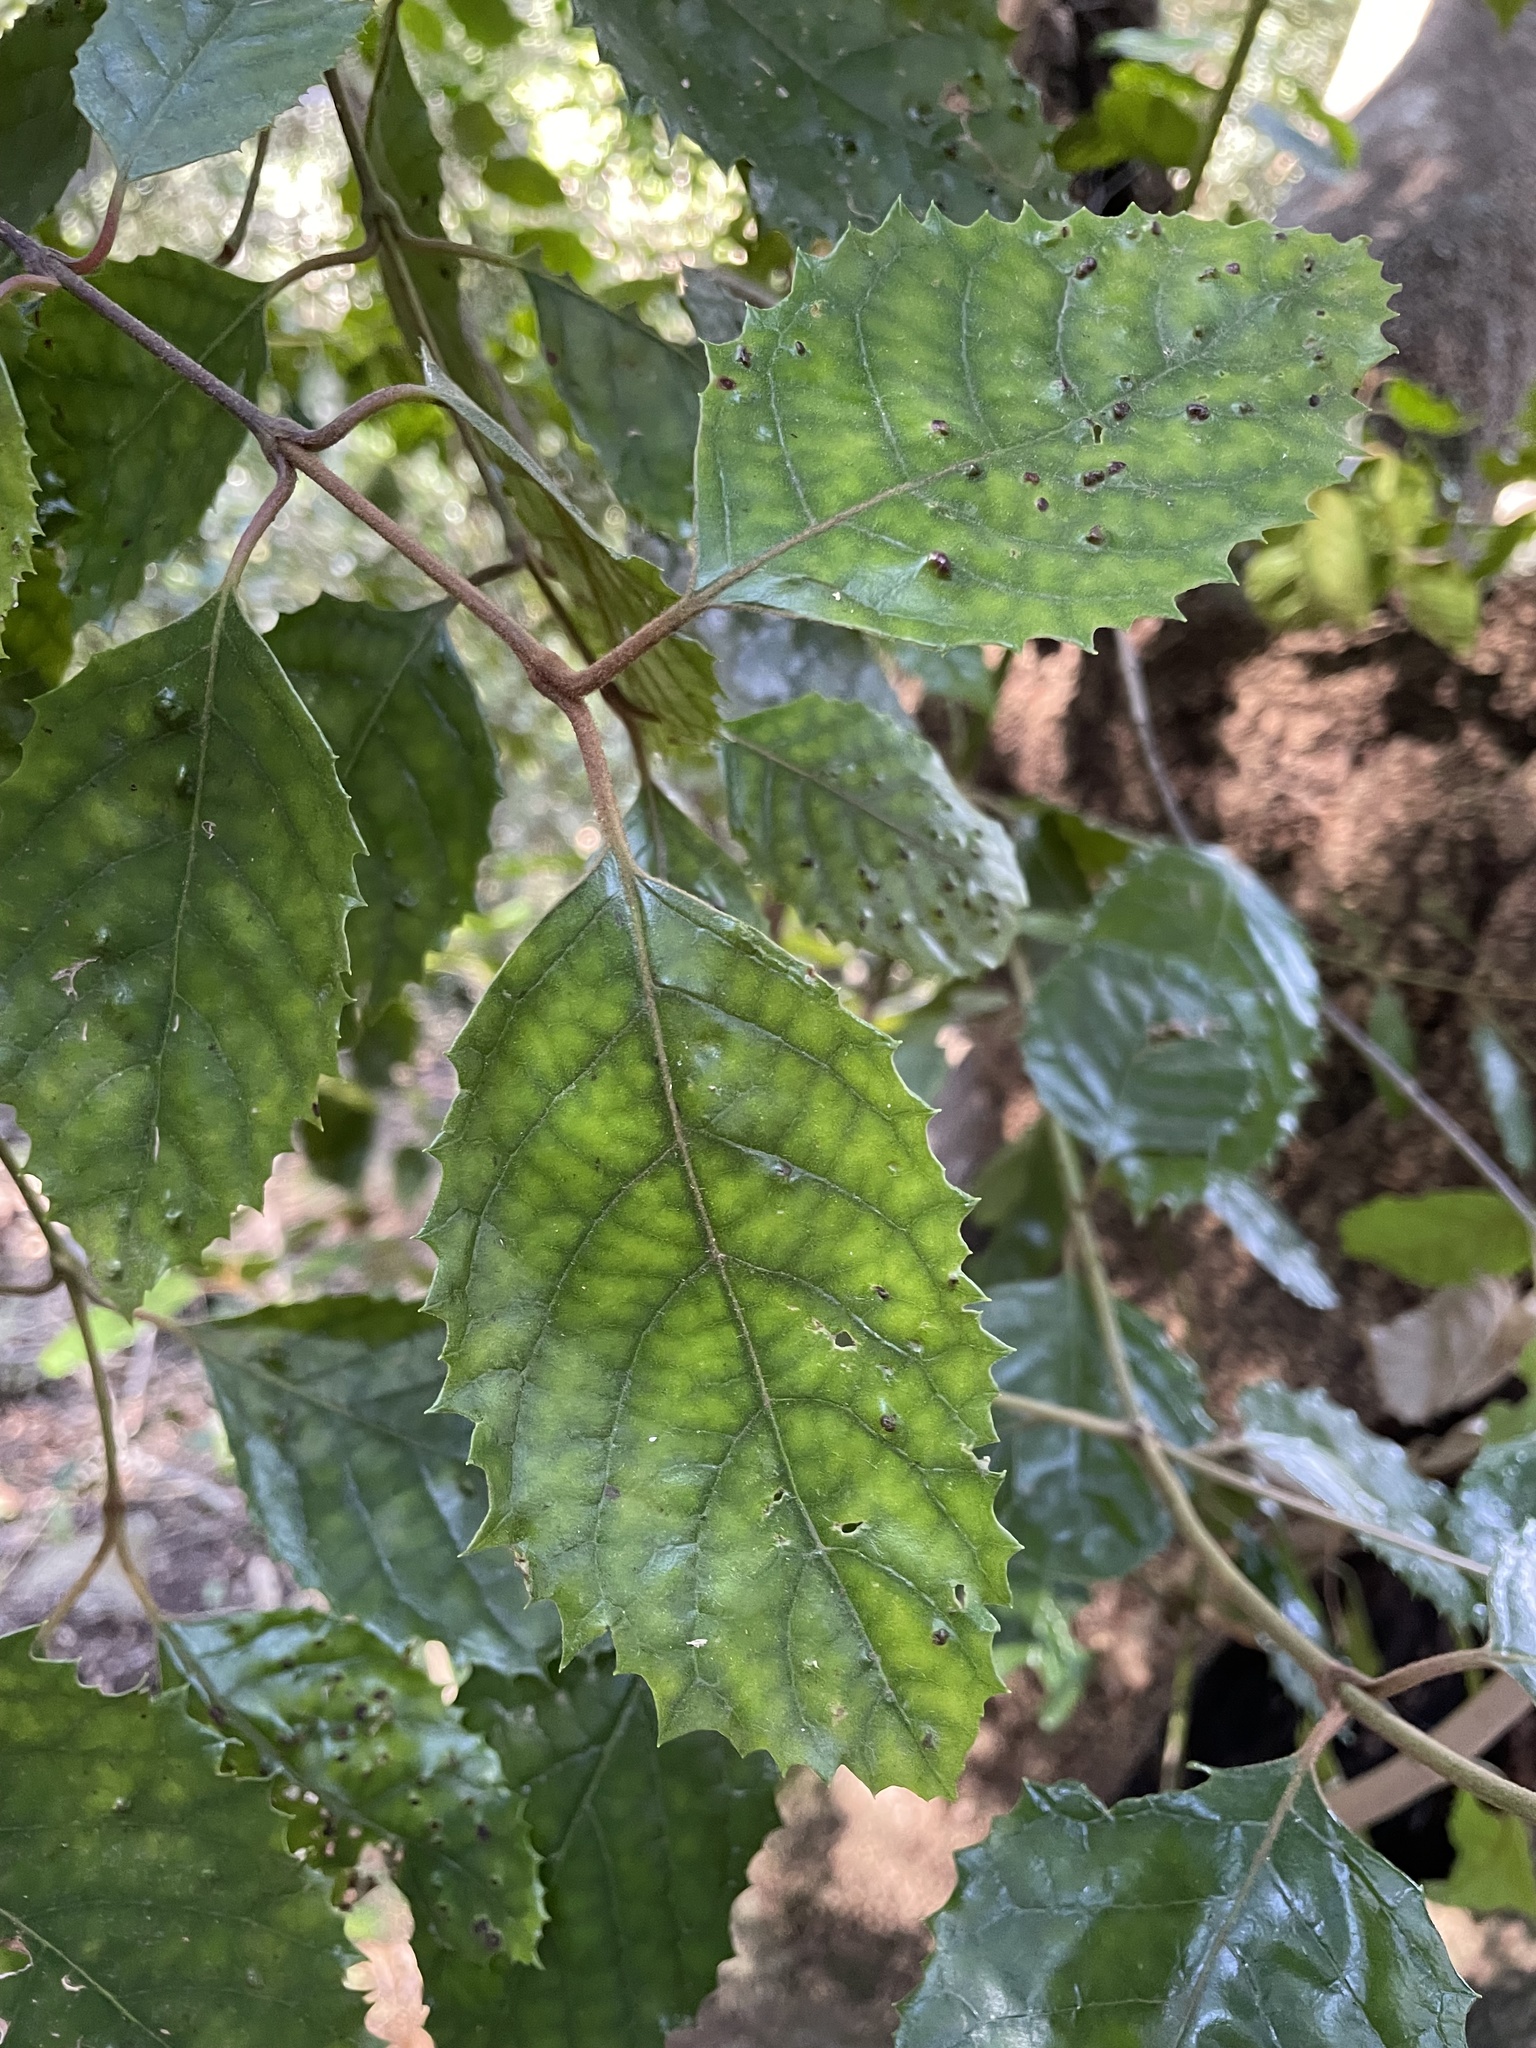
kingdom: Plantae
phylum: Tracheophyta
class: Magnoliopsida
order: Cornales
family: Curtisiaceae
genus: Curtisia
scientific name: Curtisia dentata
